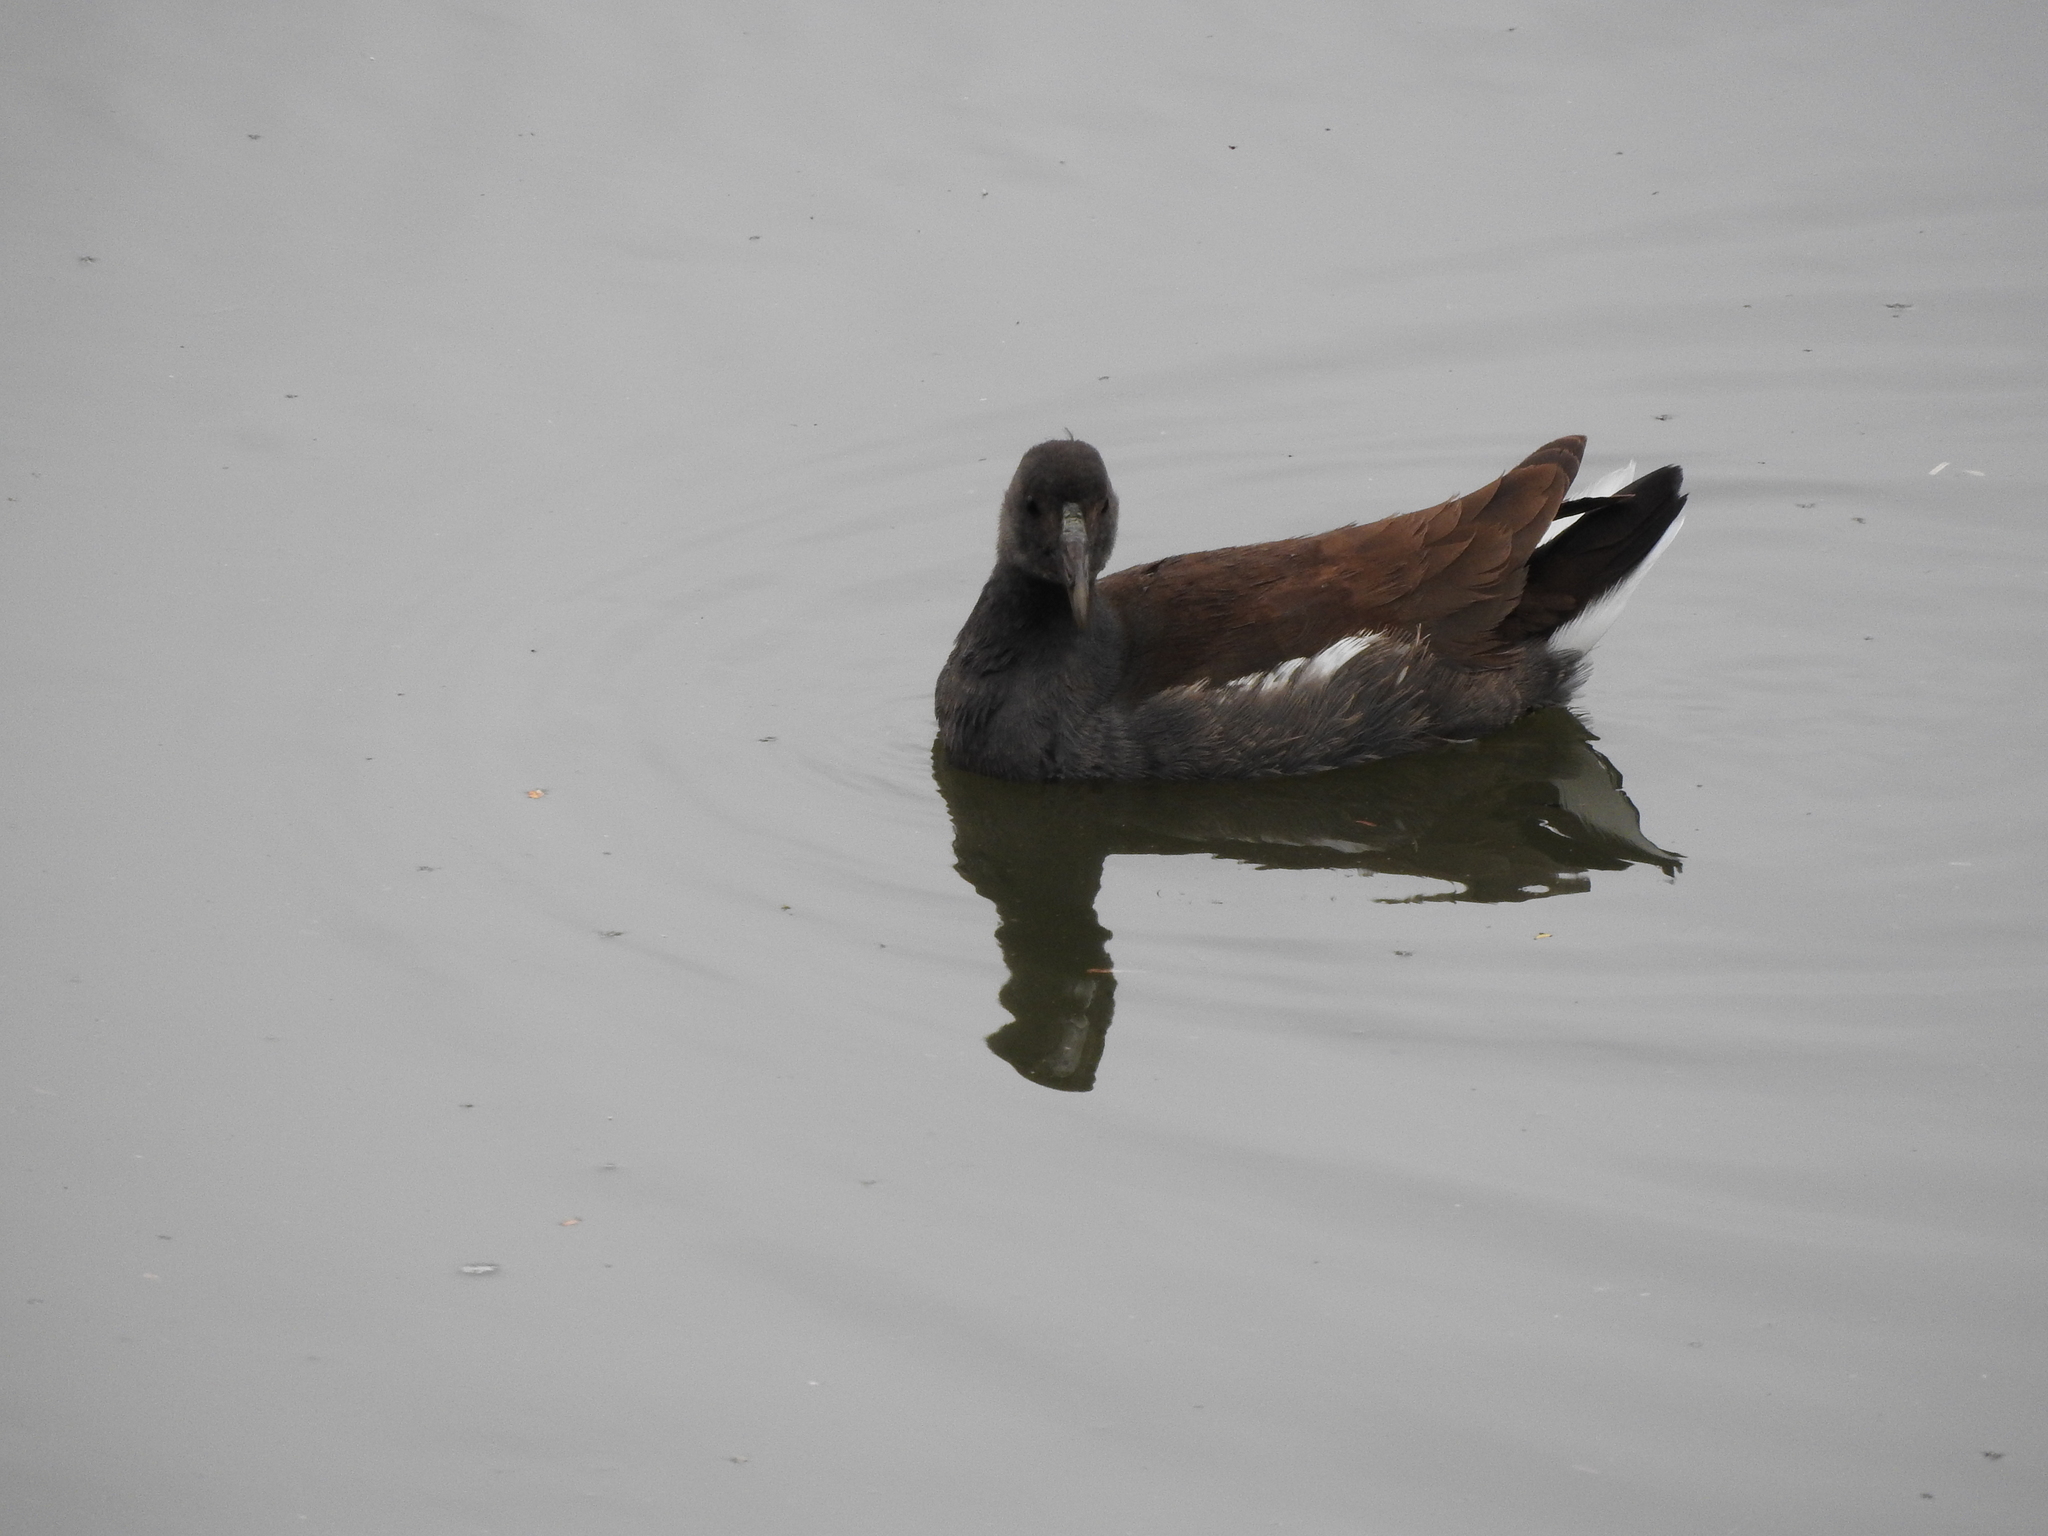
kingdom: Animalia
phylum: Chordata
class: Aves
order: Gruiformes
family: Rallidae
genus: Gallinula
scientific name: Gallinula chloropus
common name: Common moorhen
